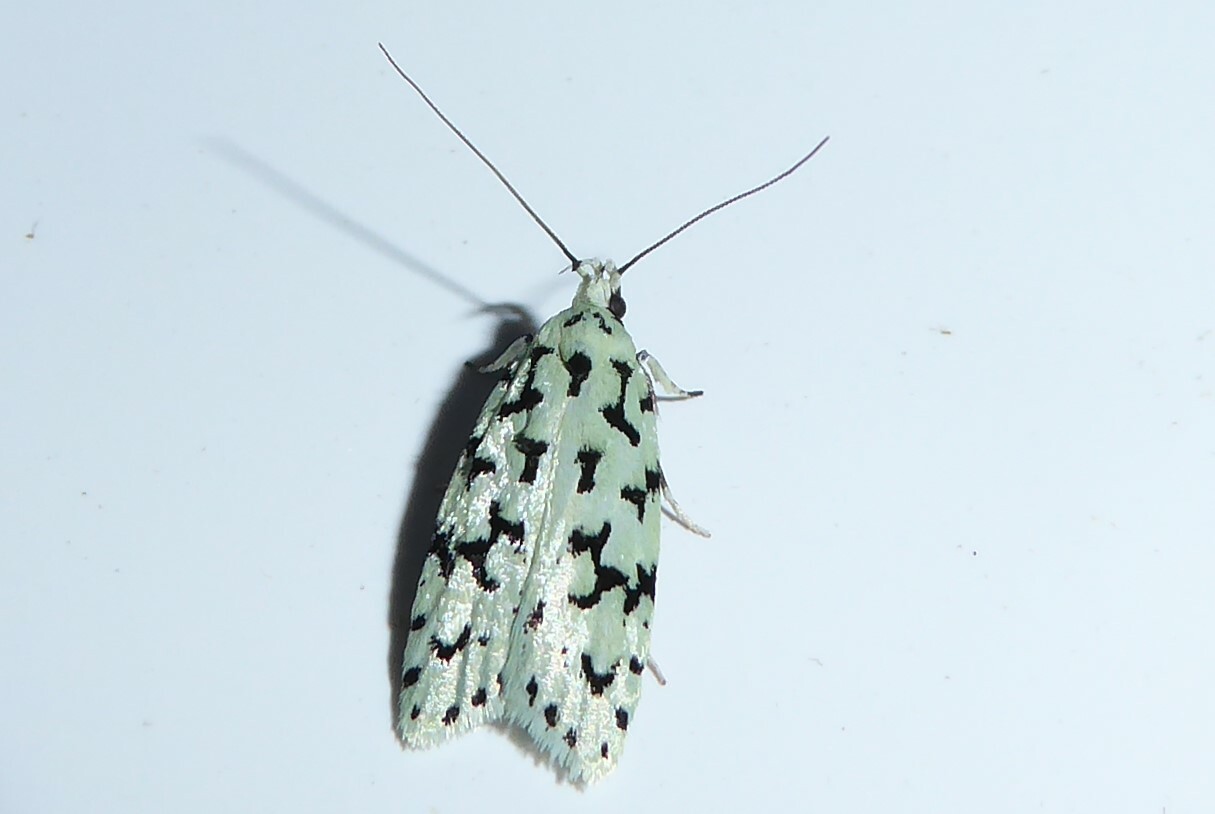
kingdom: Animalia
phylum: Arthropoda
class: Insecta
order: Lepidoptera
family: Oecophoridae
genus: Izatha
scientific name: Izatha huttoni
